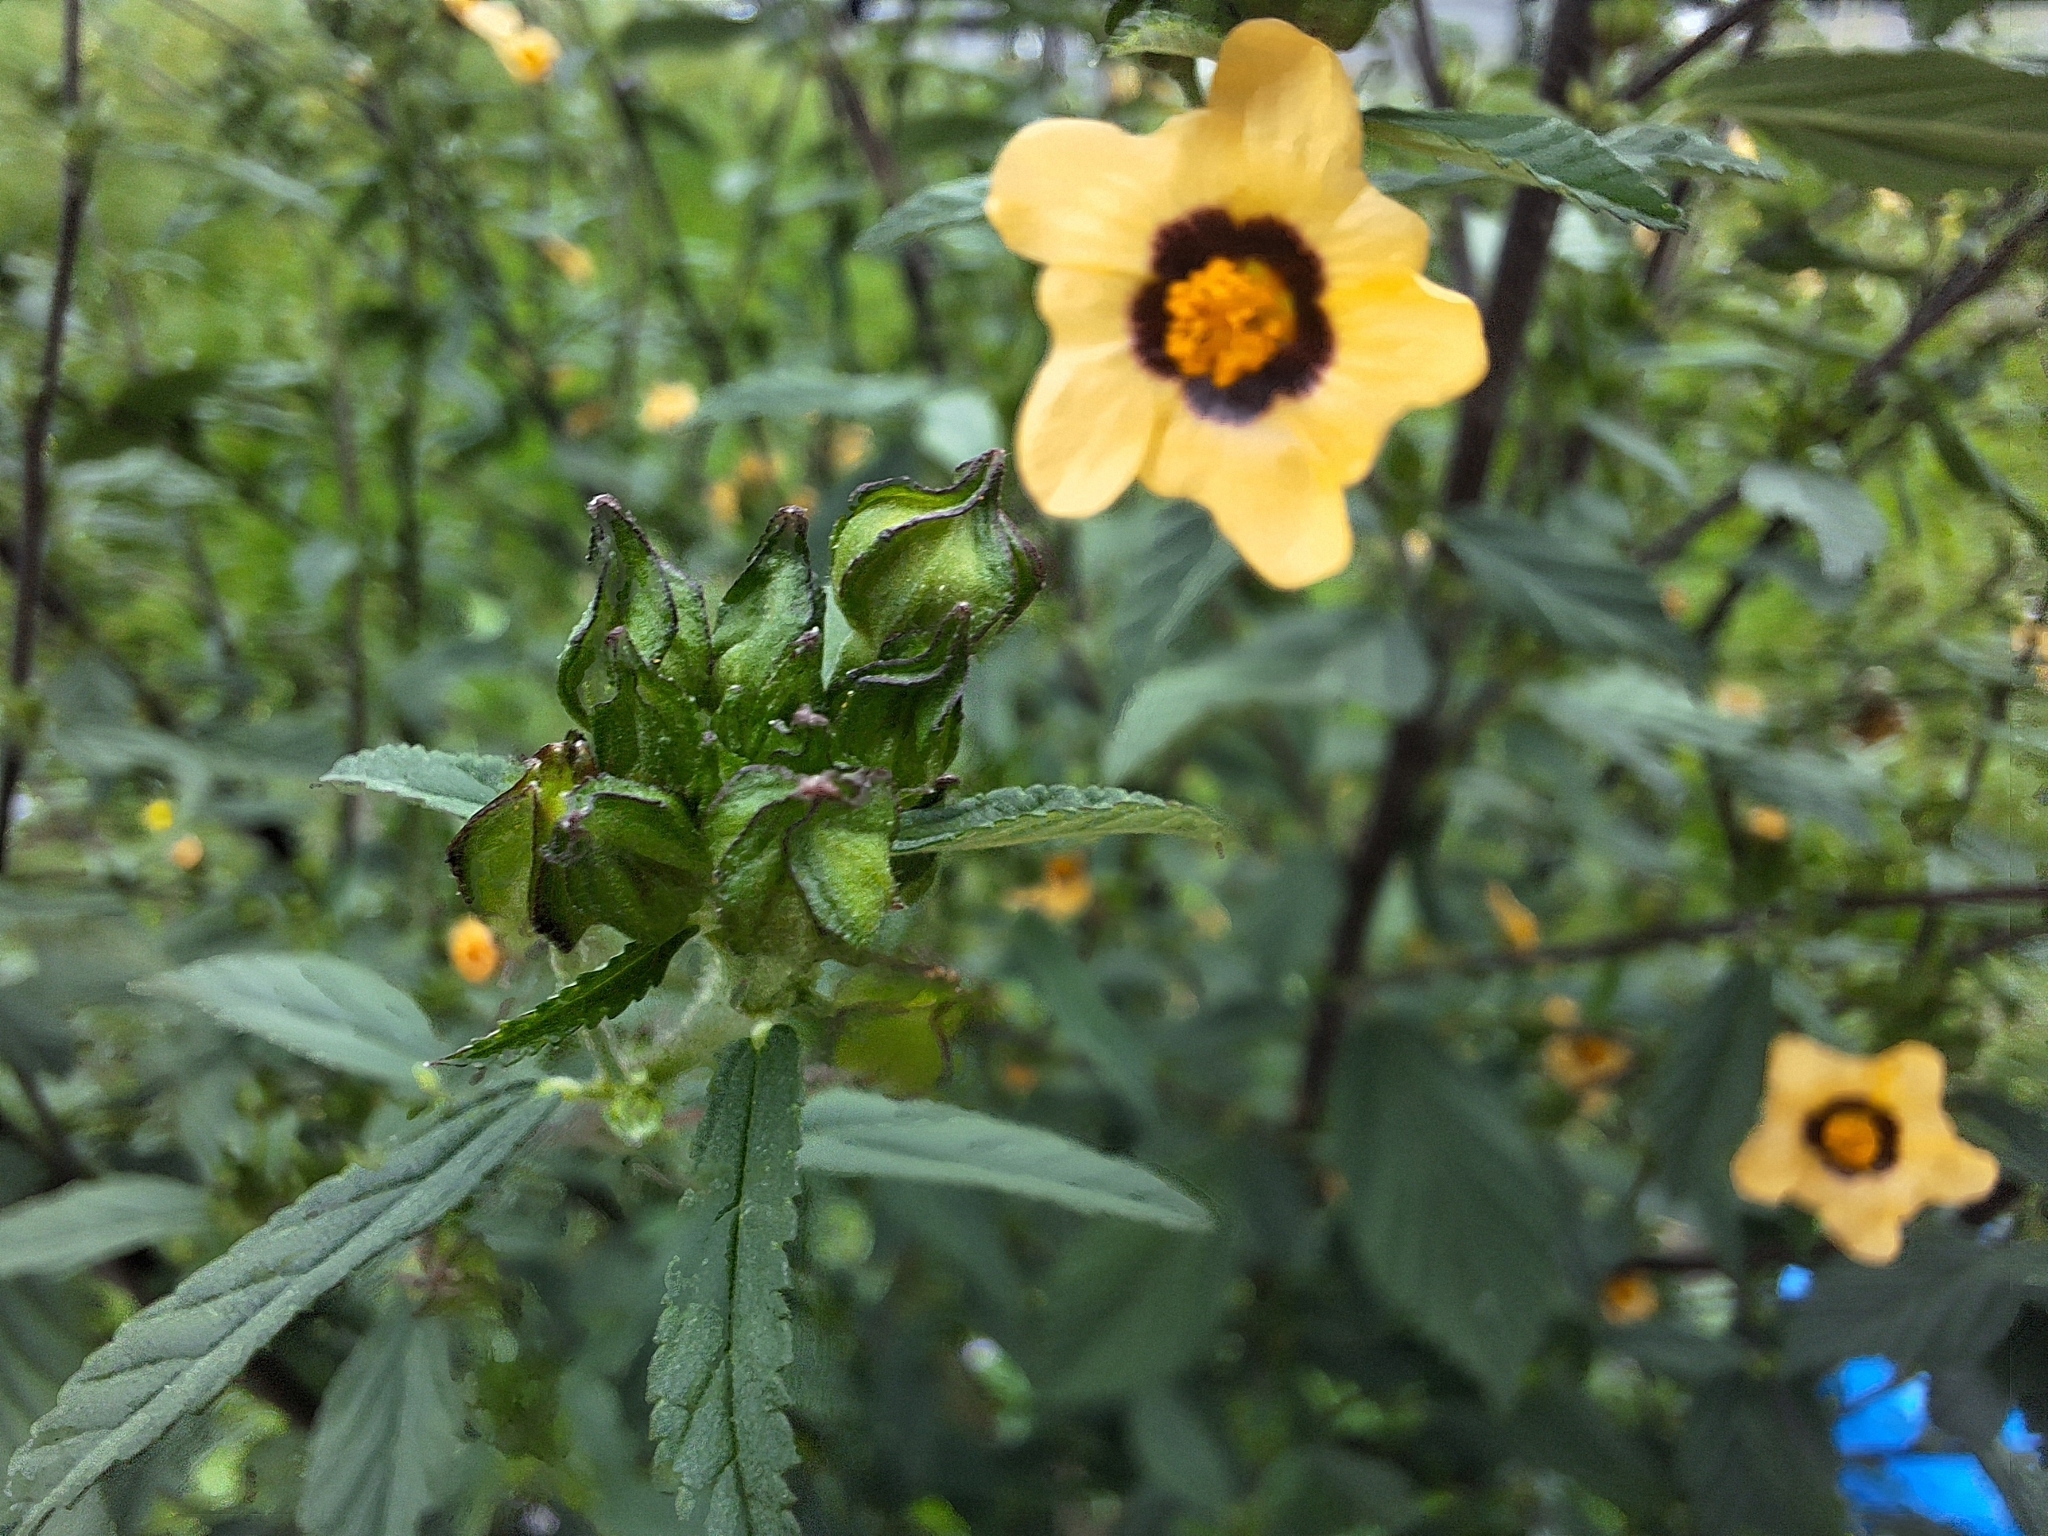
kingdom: Plantae
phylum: Tracheophyta
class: Magnoliopsida
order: Malvales
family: Malvaceae
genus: Sida
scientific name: Sida poeppigiana
